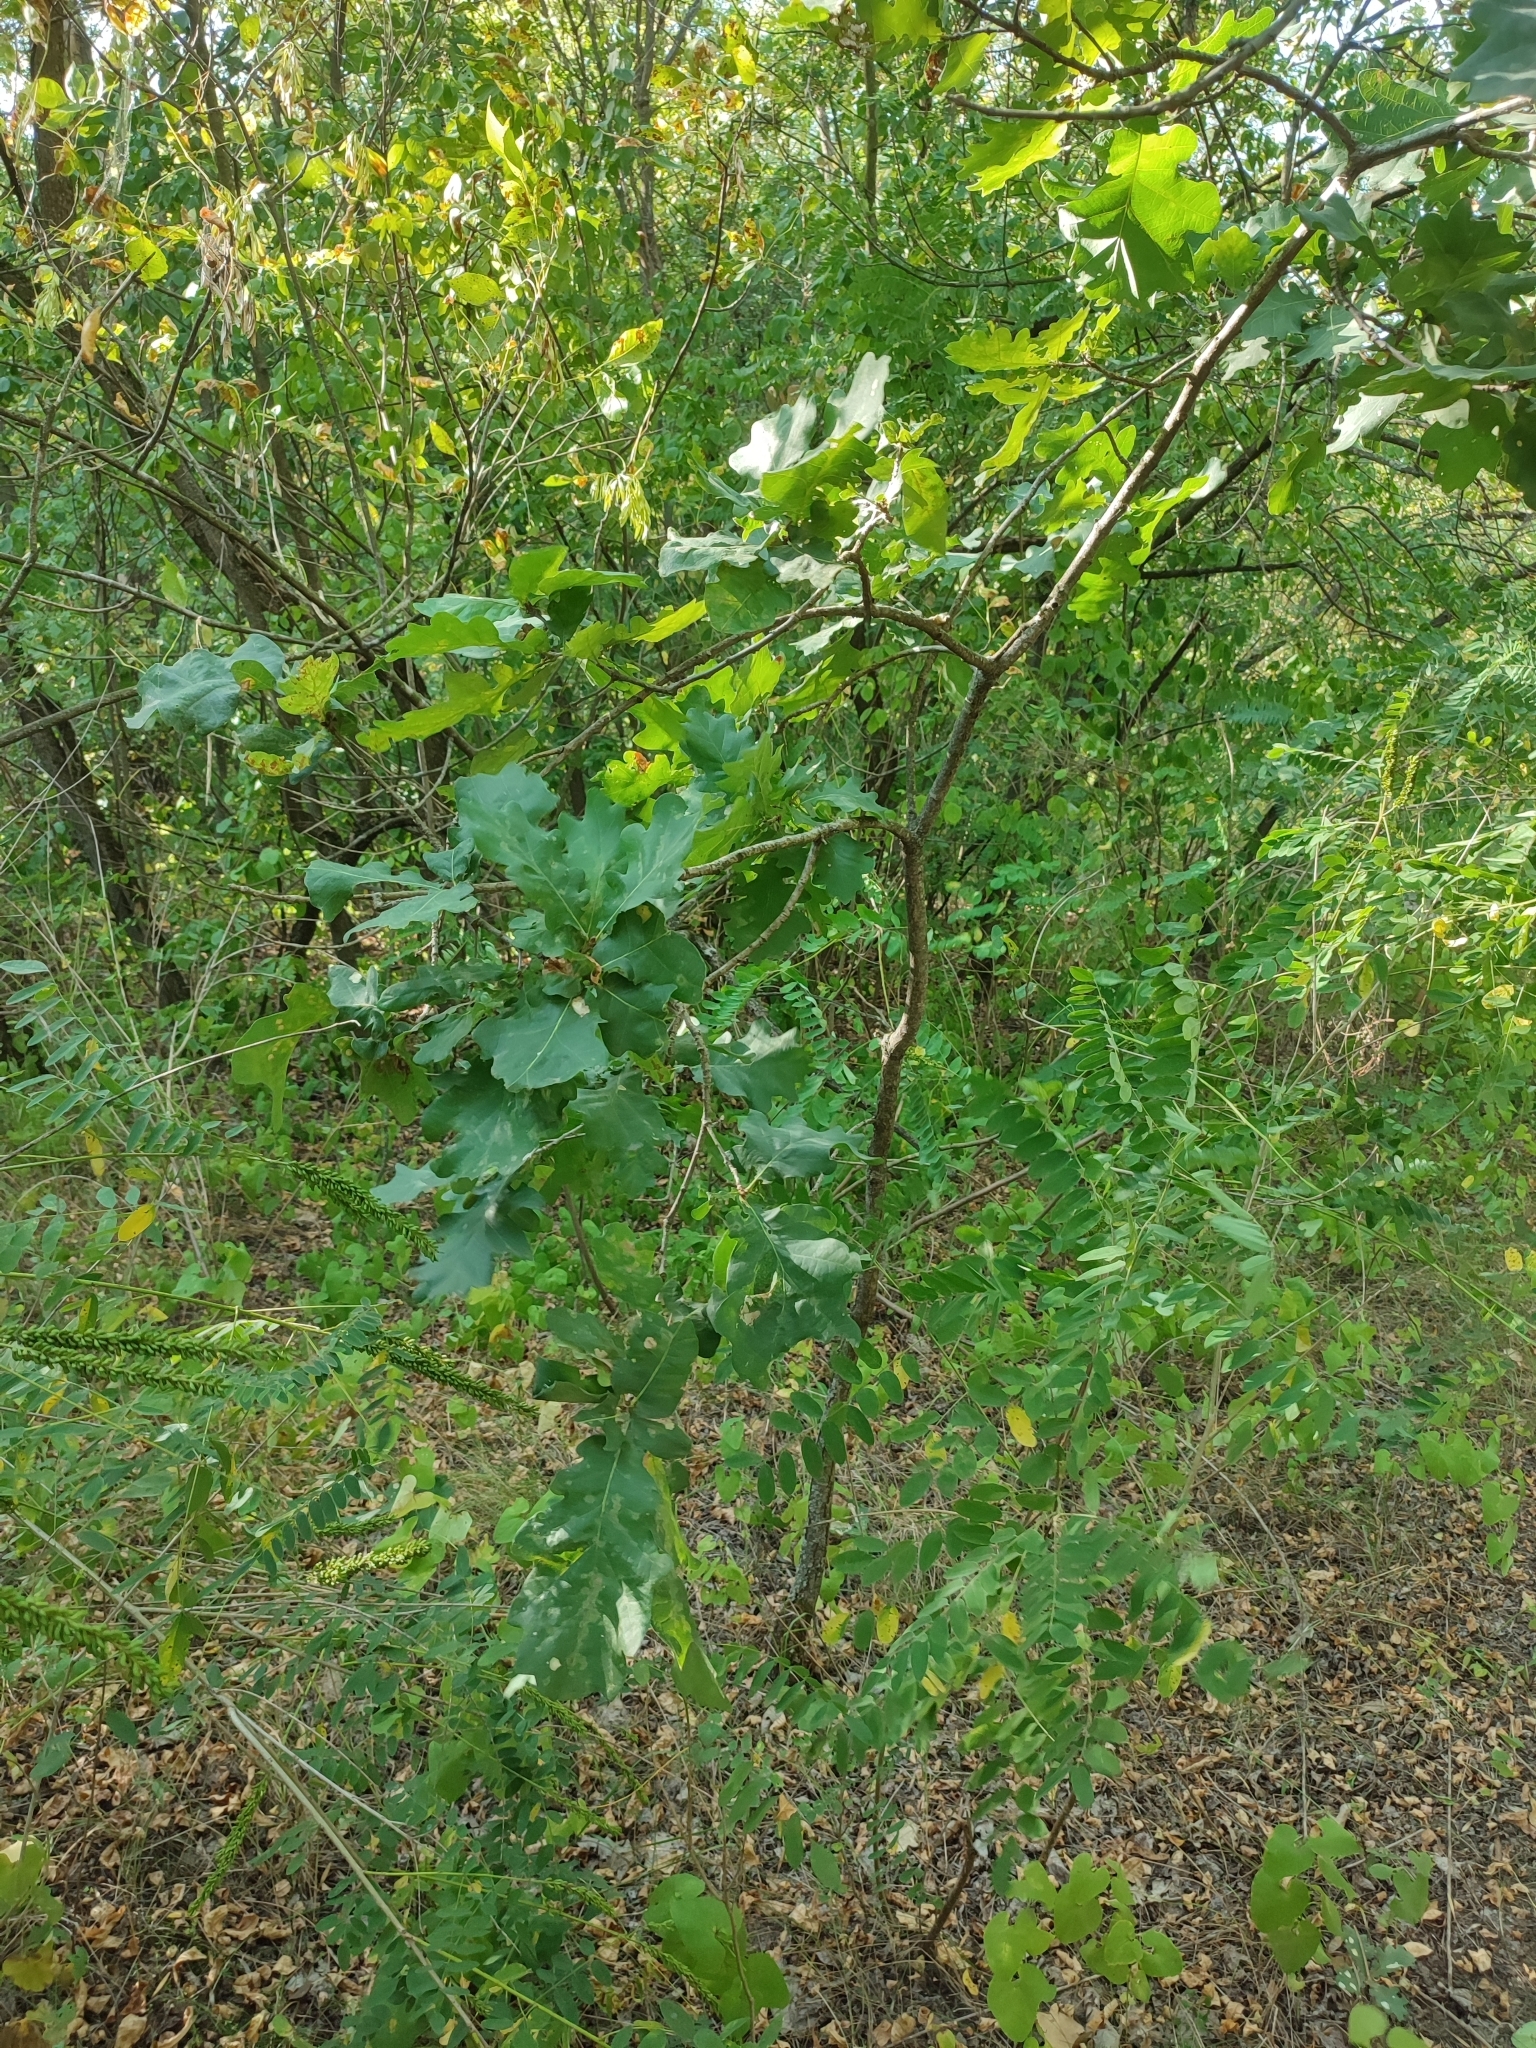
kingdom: Plantae
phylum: Tracheophyta
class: Magnoliopsida
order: Fagales
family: Fagaceae
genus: Quercus
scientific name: Quercus robur
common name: Pedunculate oak
